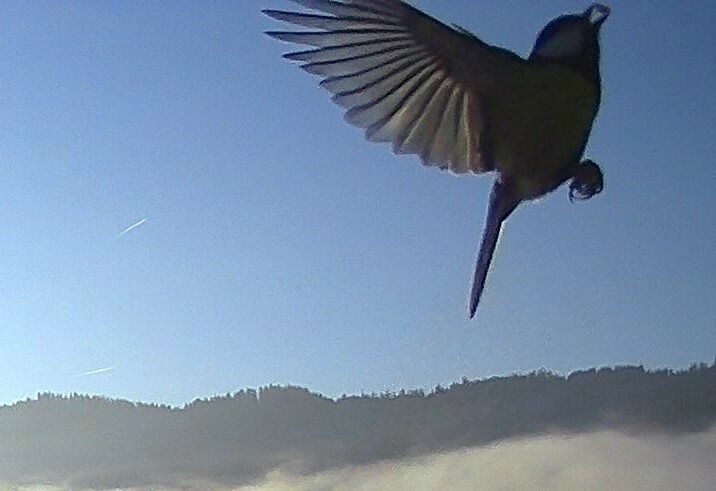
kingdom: Animalia
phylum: Chordata
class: Aves
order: Passeriformes
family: Paridae
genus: Parus
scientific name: Parus major
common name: Great tit
